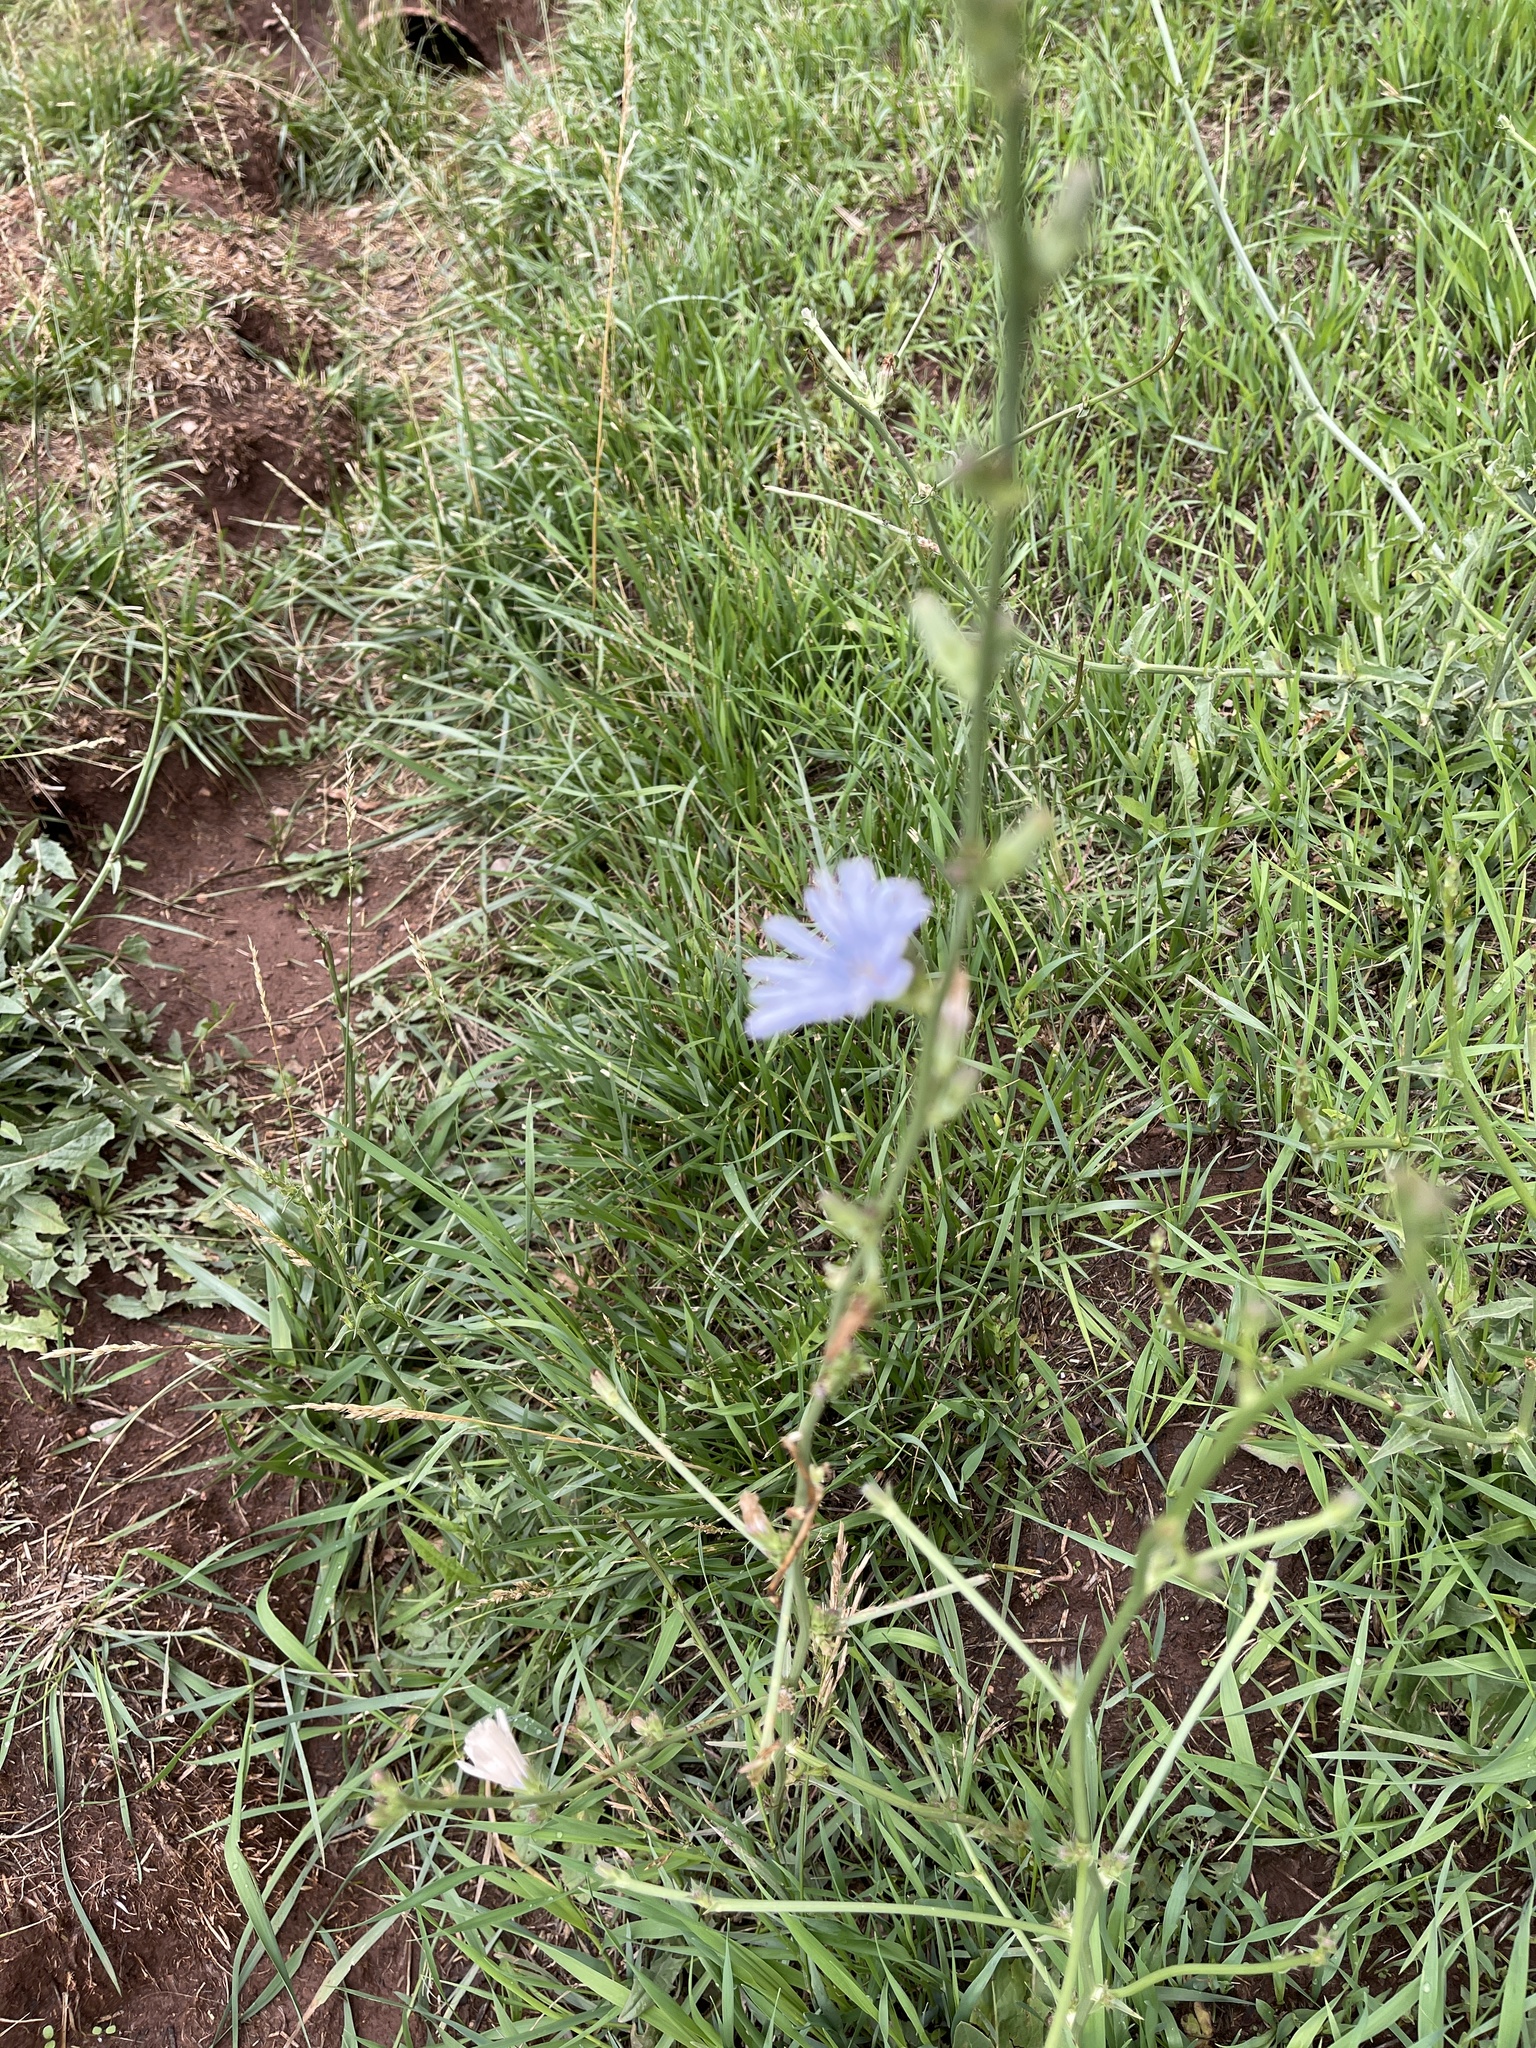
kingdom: Plantae
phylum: Tracheophyta
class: Magnoliopsida
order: Asterales
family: Asteraceae
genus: Cichorium
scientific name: Cichorium intybus
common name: Chicory
